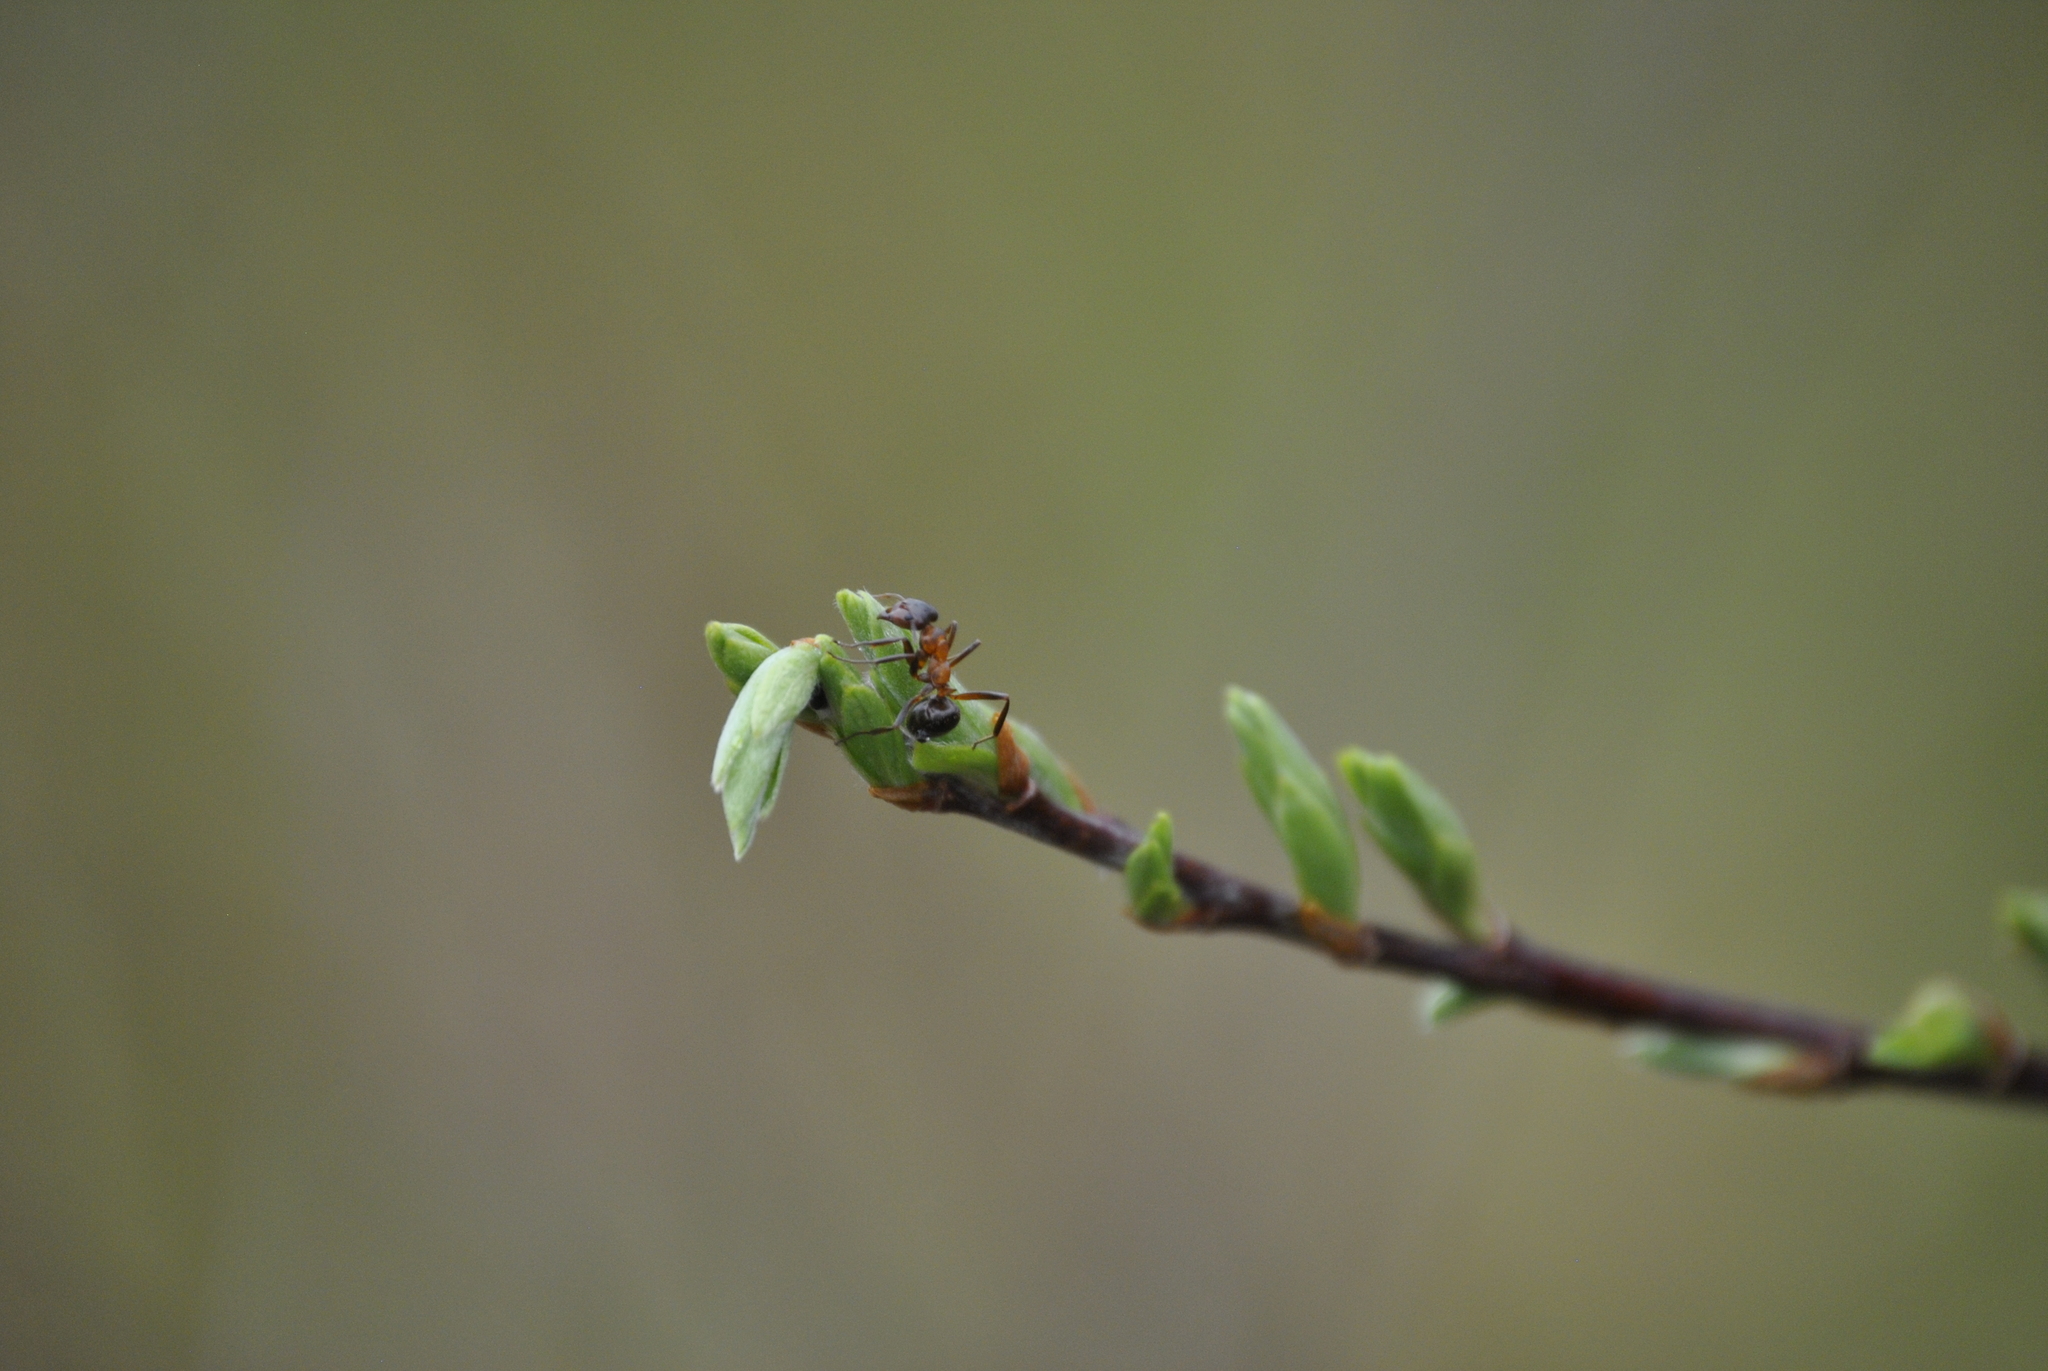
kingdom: Animalia
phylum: Arthropoda
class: Insecta
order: Hymenoptera
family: Formicidae
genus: Formica
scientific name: Formica ulkei
